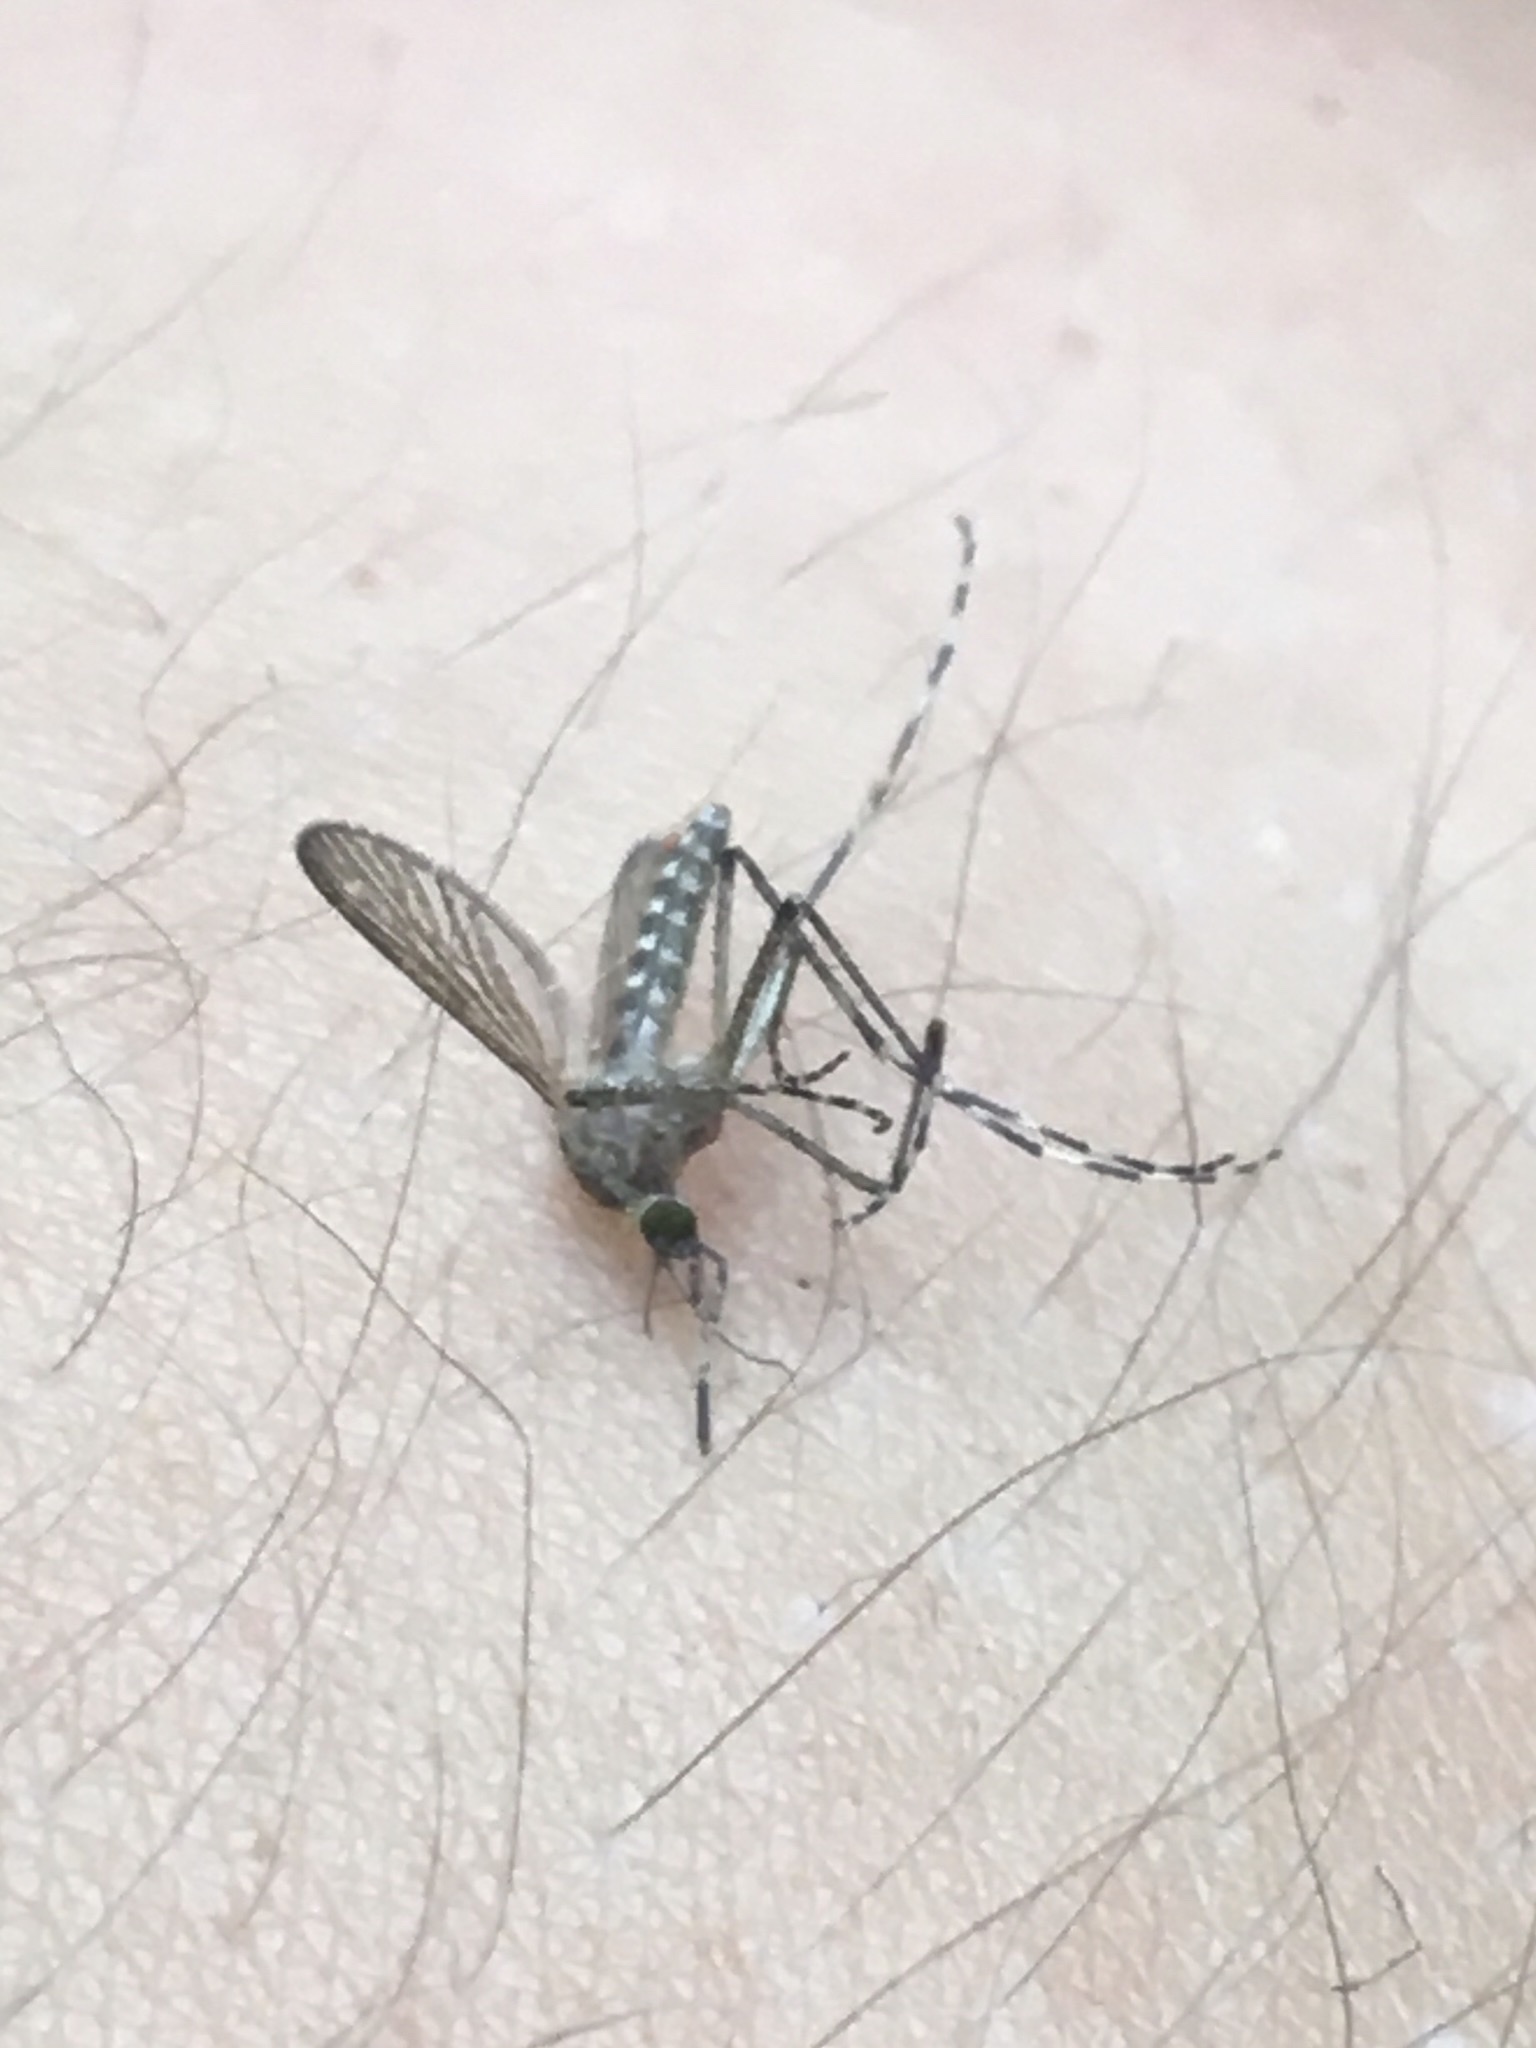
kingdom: Animalia
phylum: Arthropoda
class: Insecta
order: Diptera
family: Culicidae
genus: Coquillettidia
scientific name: Coquillettidia perturbans
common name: Cattail mosquito
